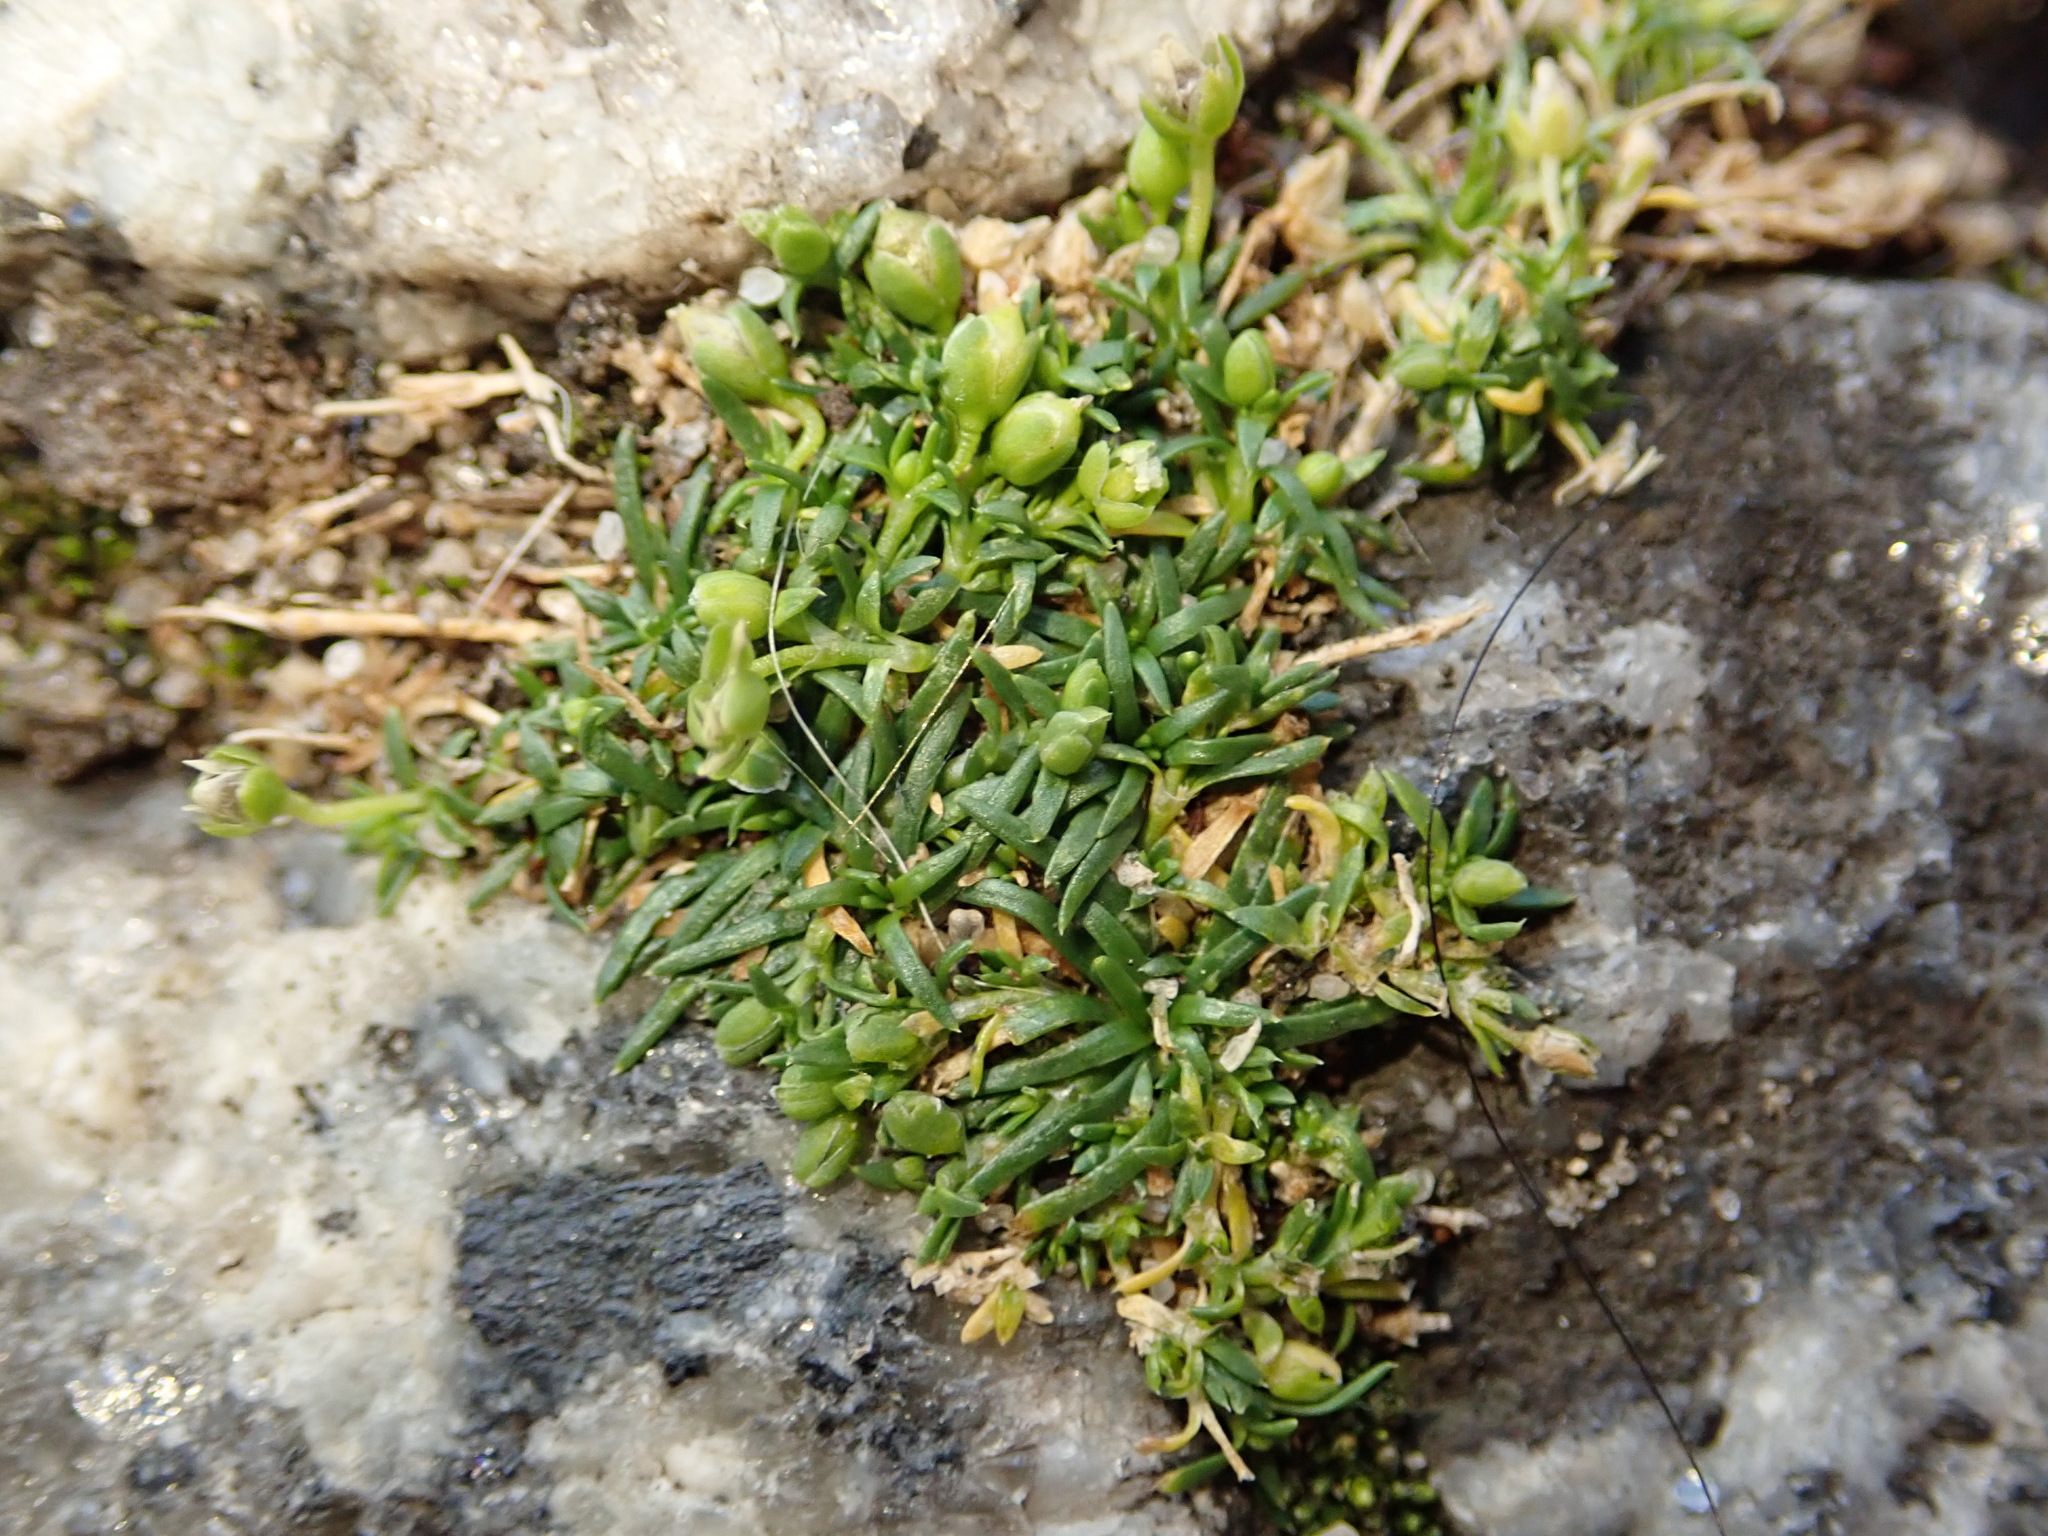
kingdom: Plantae
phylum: Tracheophyta
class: Magnoliopsida
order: Caryophyllales
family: Caryophyllaceae
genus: Sagina
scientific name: Sagina procumbens
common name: Procumbent pearlwort
